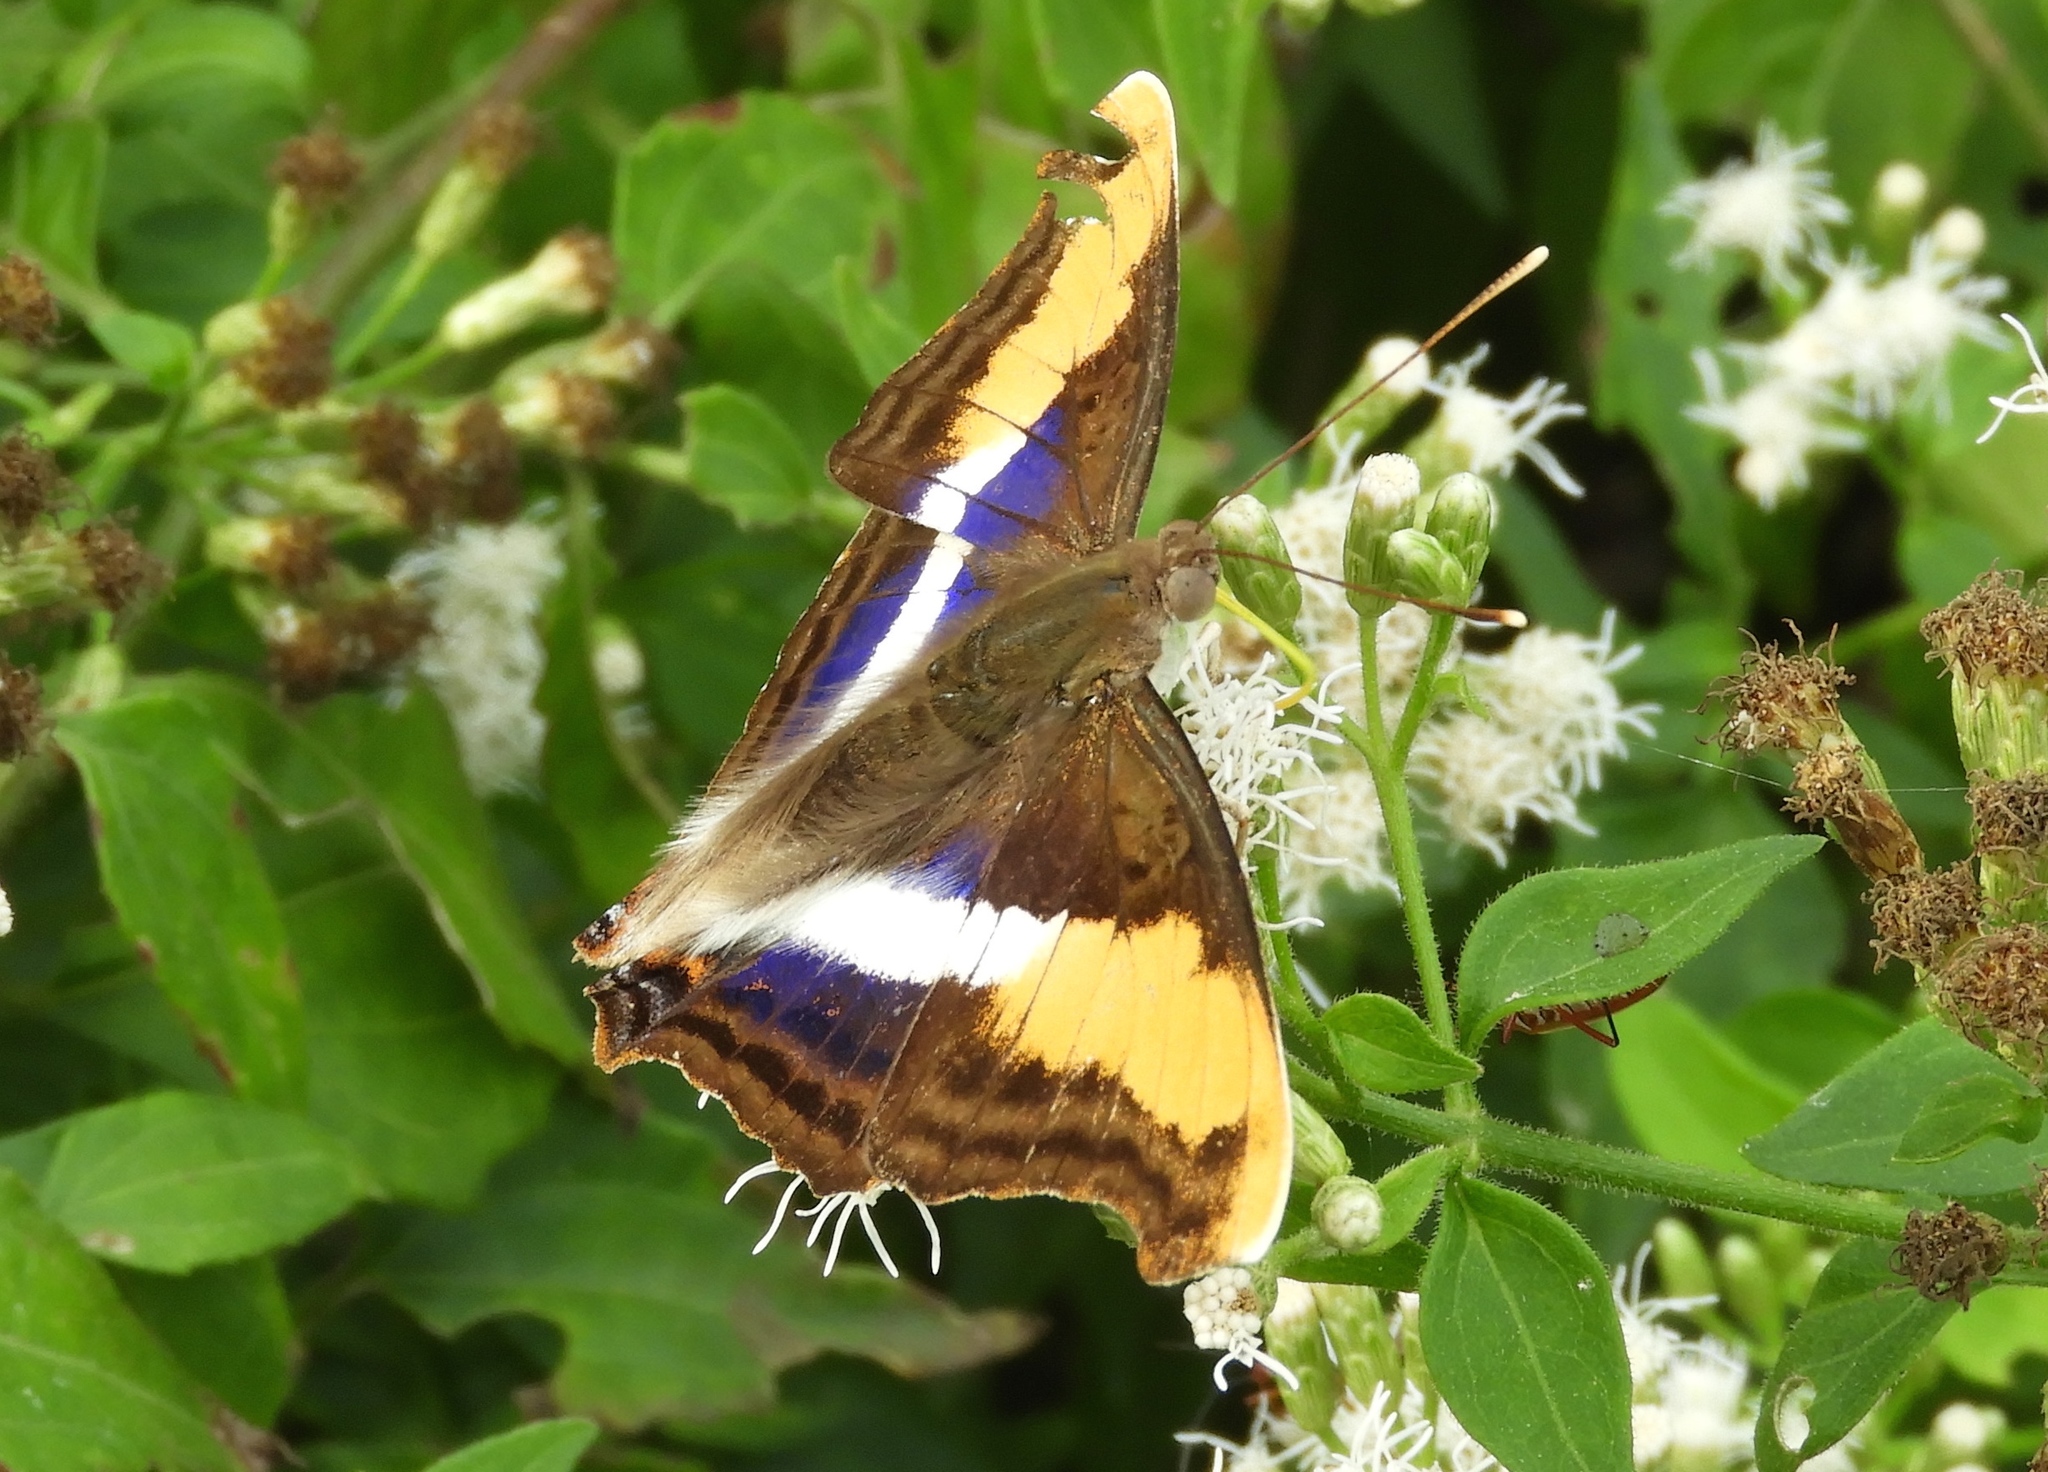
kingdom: Animalia
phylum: Arthropoda
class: Insecta
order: Lepidoptera
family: Nymphalidae
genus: Doxocopa
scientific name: Doxocopa laure
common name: Silver emperor
